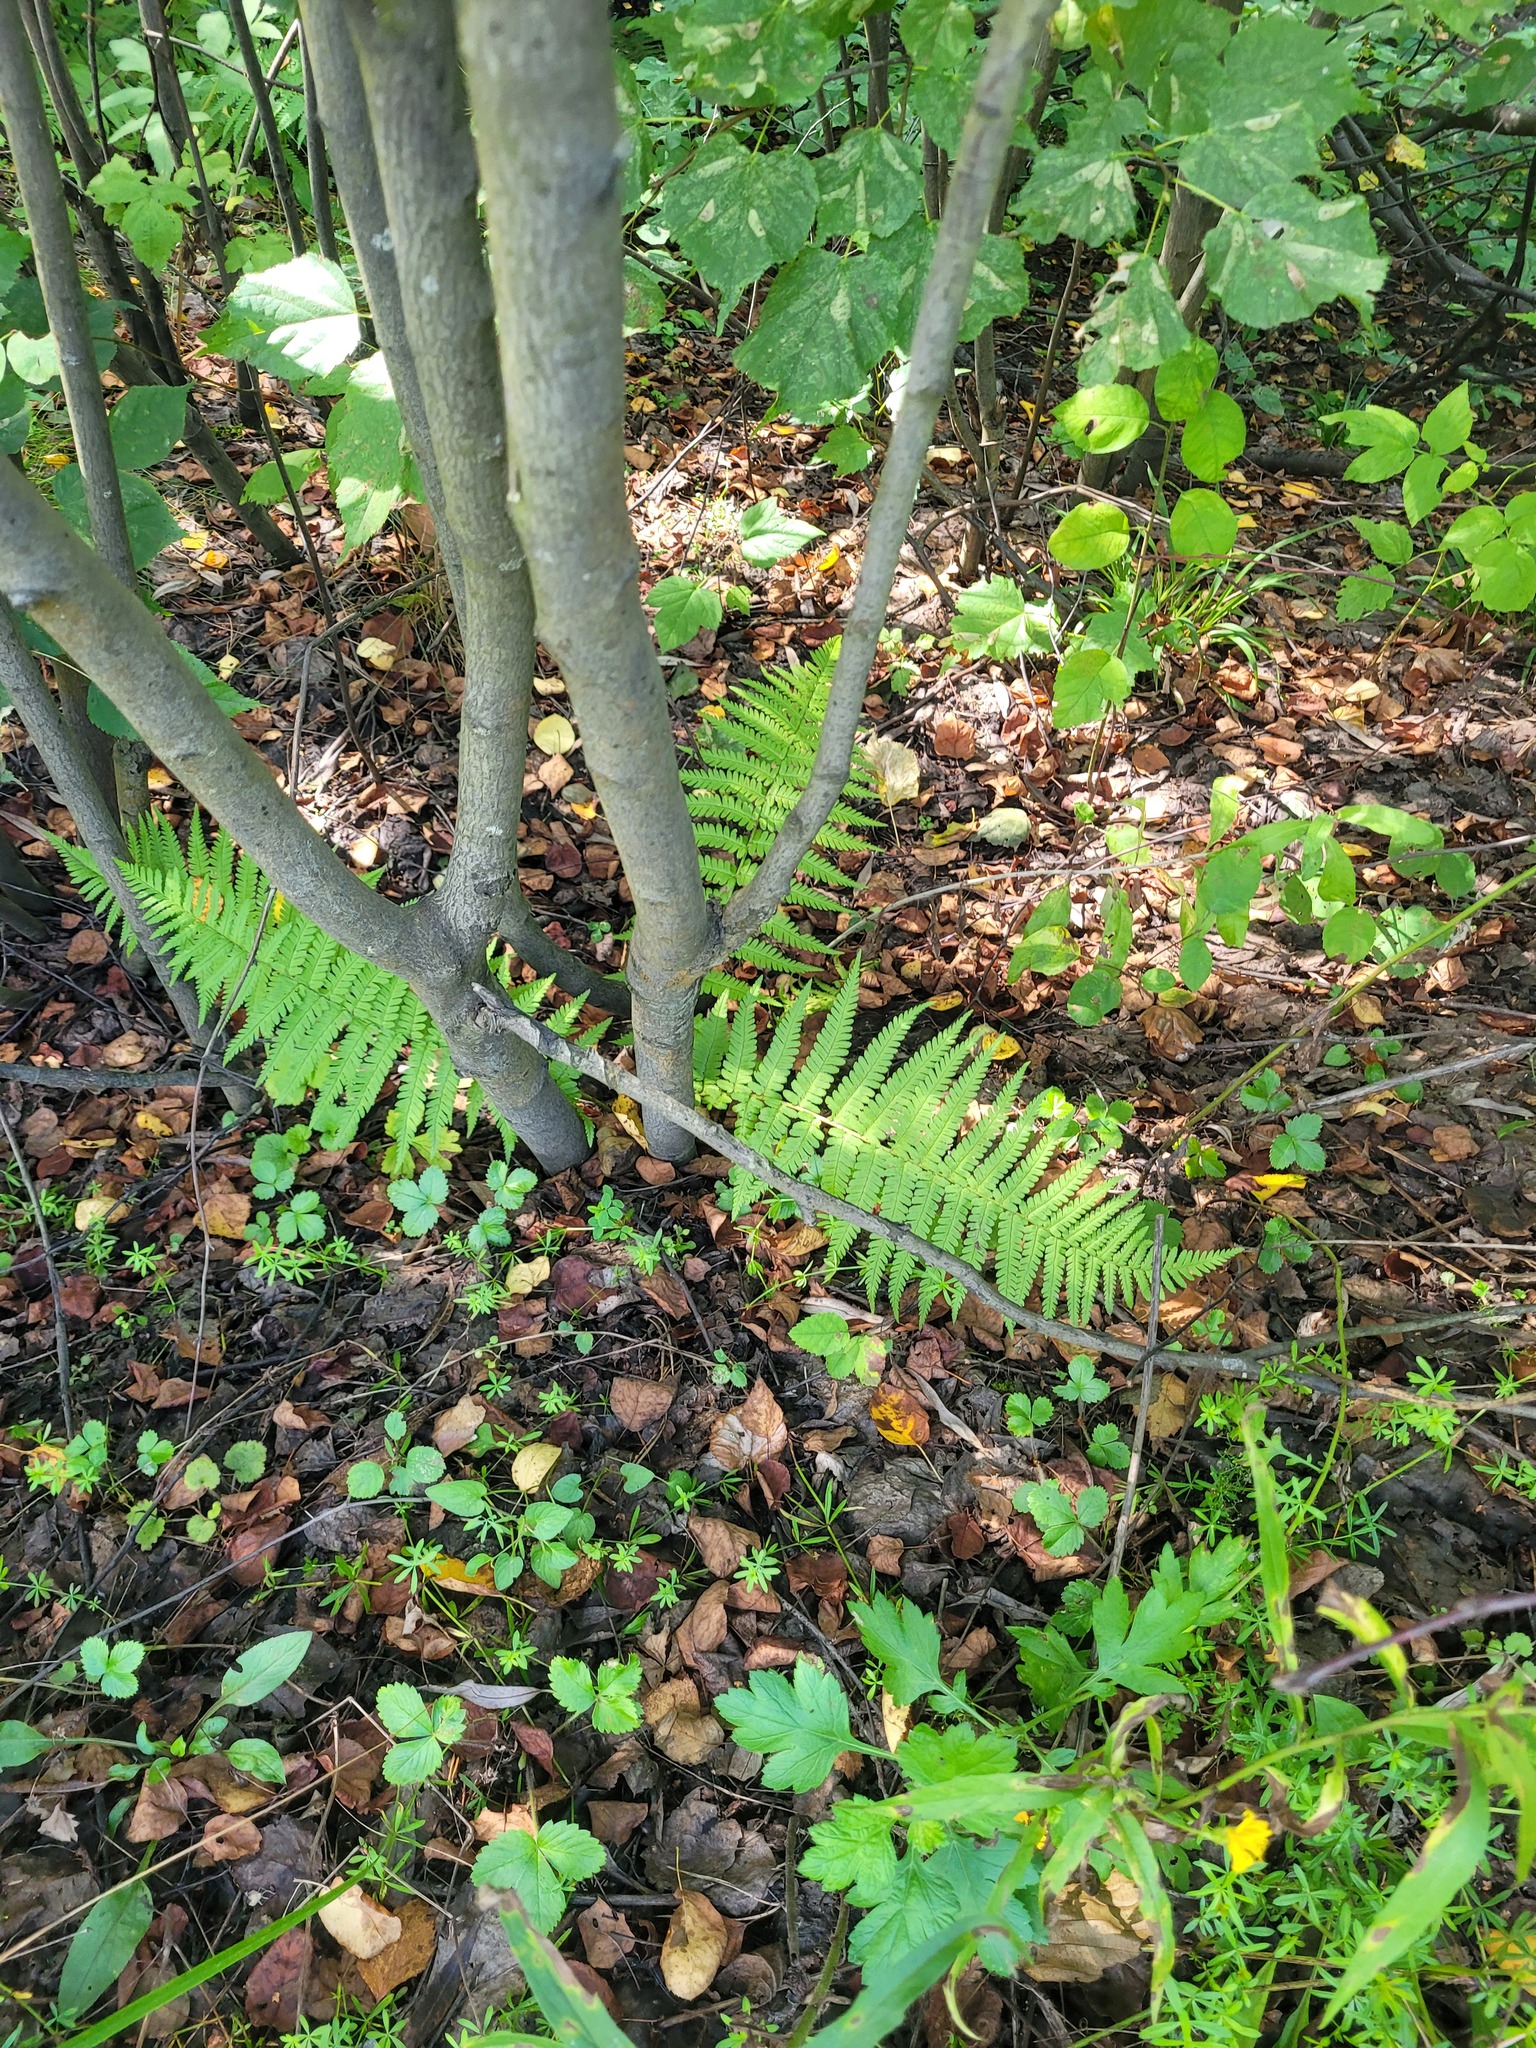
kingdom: Plantae
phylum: Tracheophyta
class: Polypodiopsida
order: Polypodiales
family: Dryopteridaceae
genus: Dryopteris
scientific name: Dryopteris filix-mas
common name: Male fern
